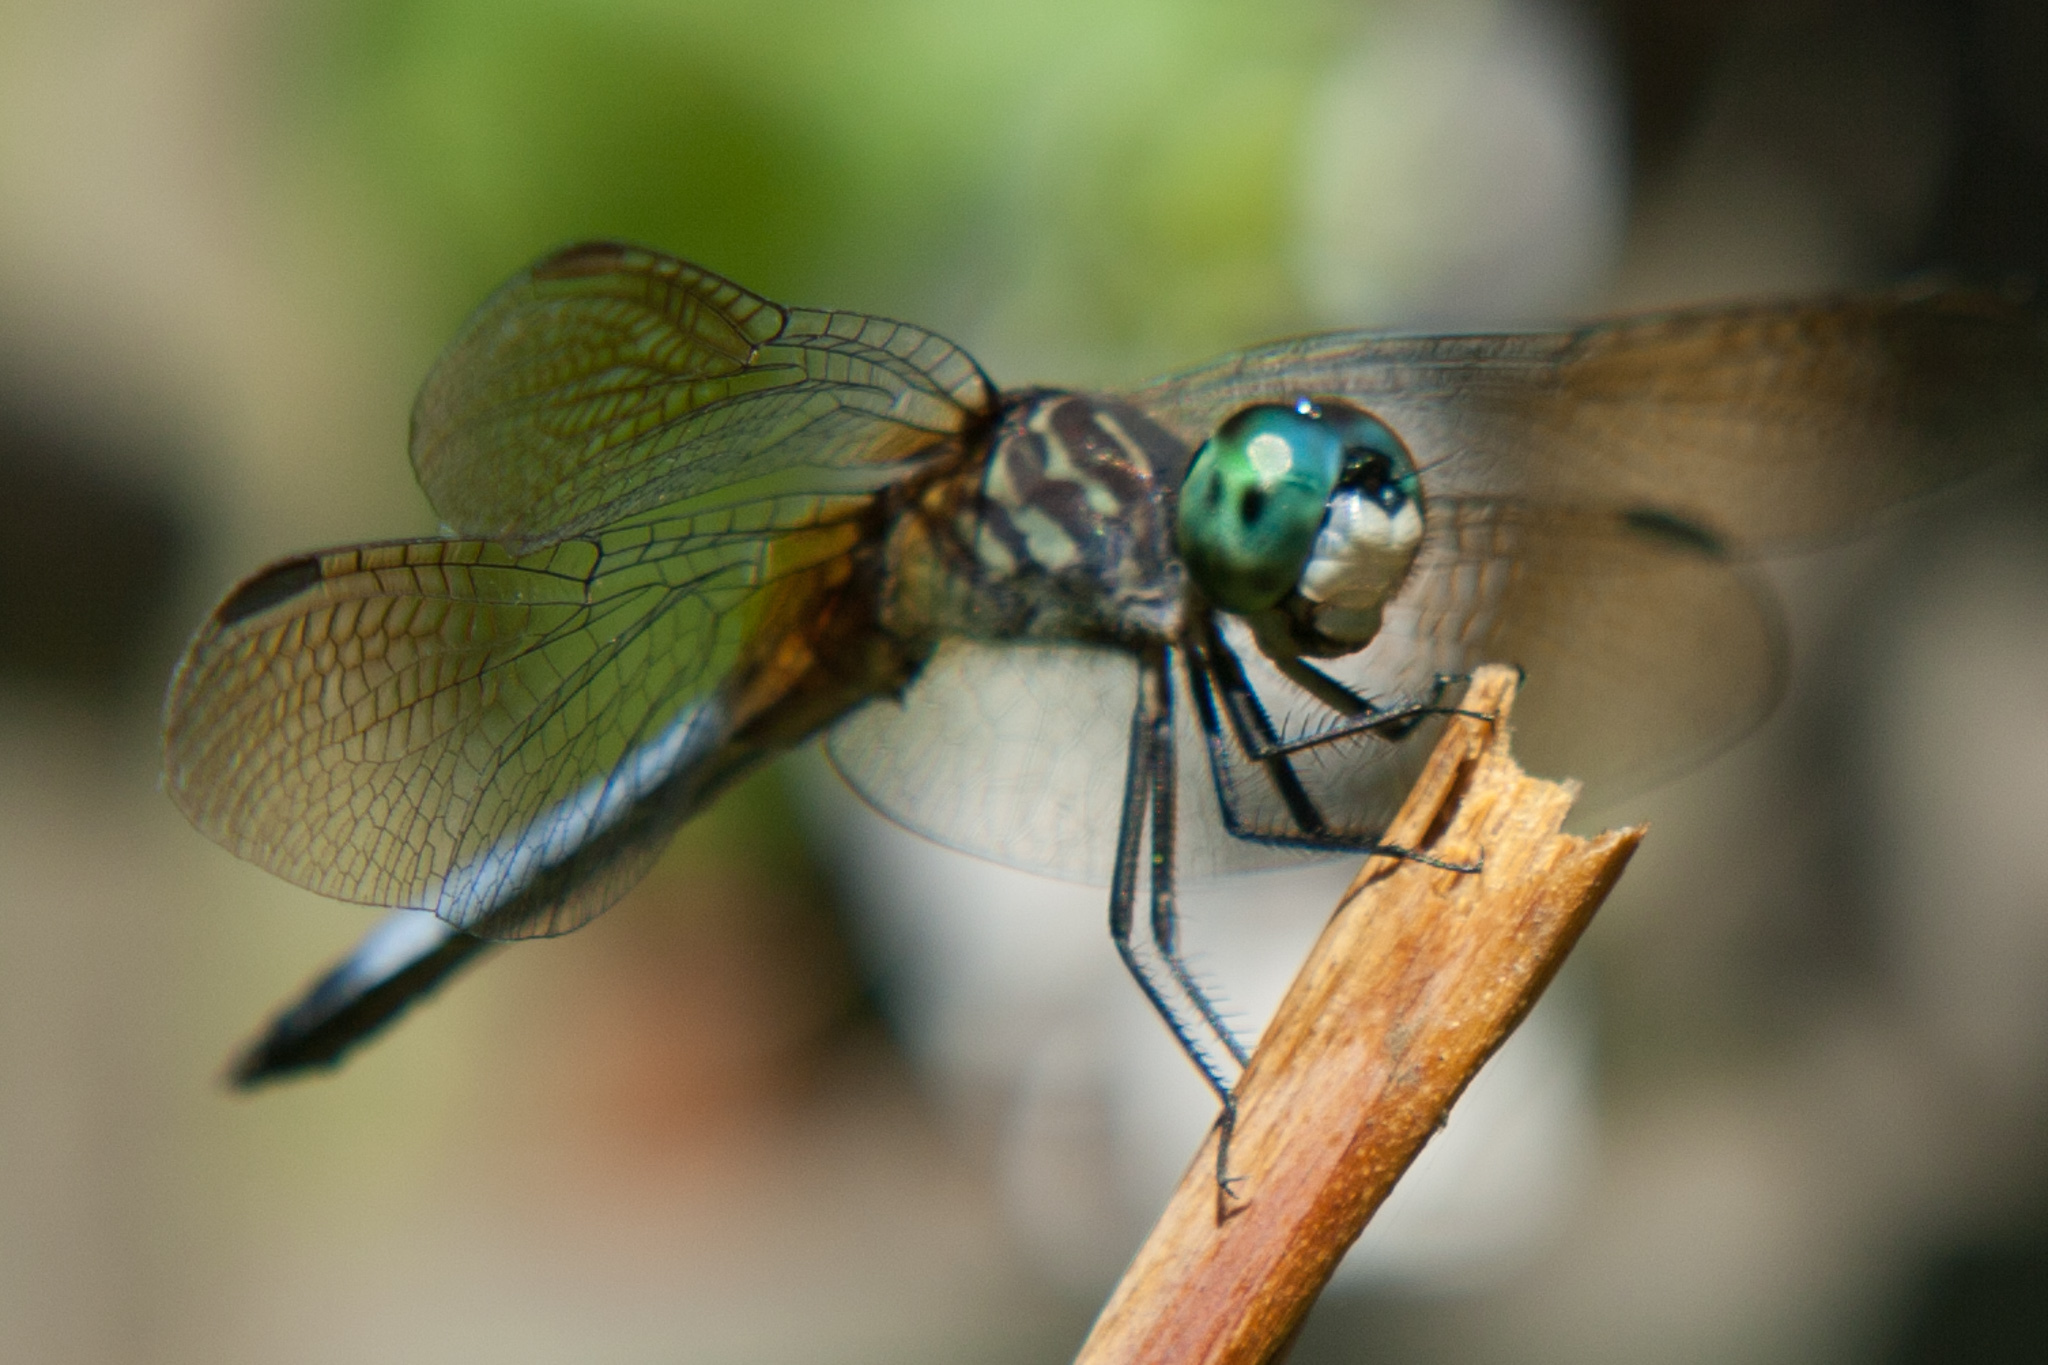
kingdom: Animalia
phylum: Arthropoda
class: Insecta
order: Odonata
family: Libellulidae
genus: Pachydiplax
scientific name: Pachydiplax longipennis
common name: Blue dasher
